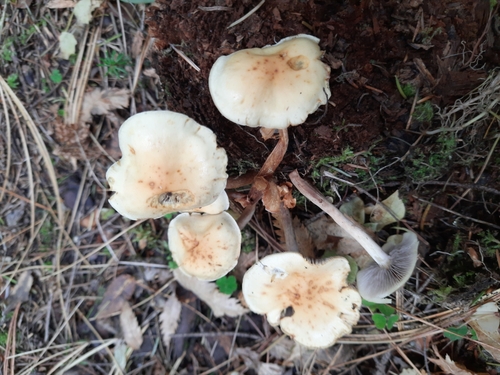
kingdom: Fungi
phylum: Basidiomycota
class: Agaricomycetes
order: Agaricales
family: Strophariaceae
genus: Hypholoma
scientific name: Hypholoma capnoides
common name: Conifer tuft
